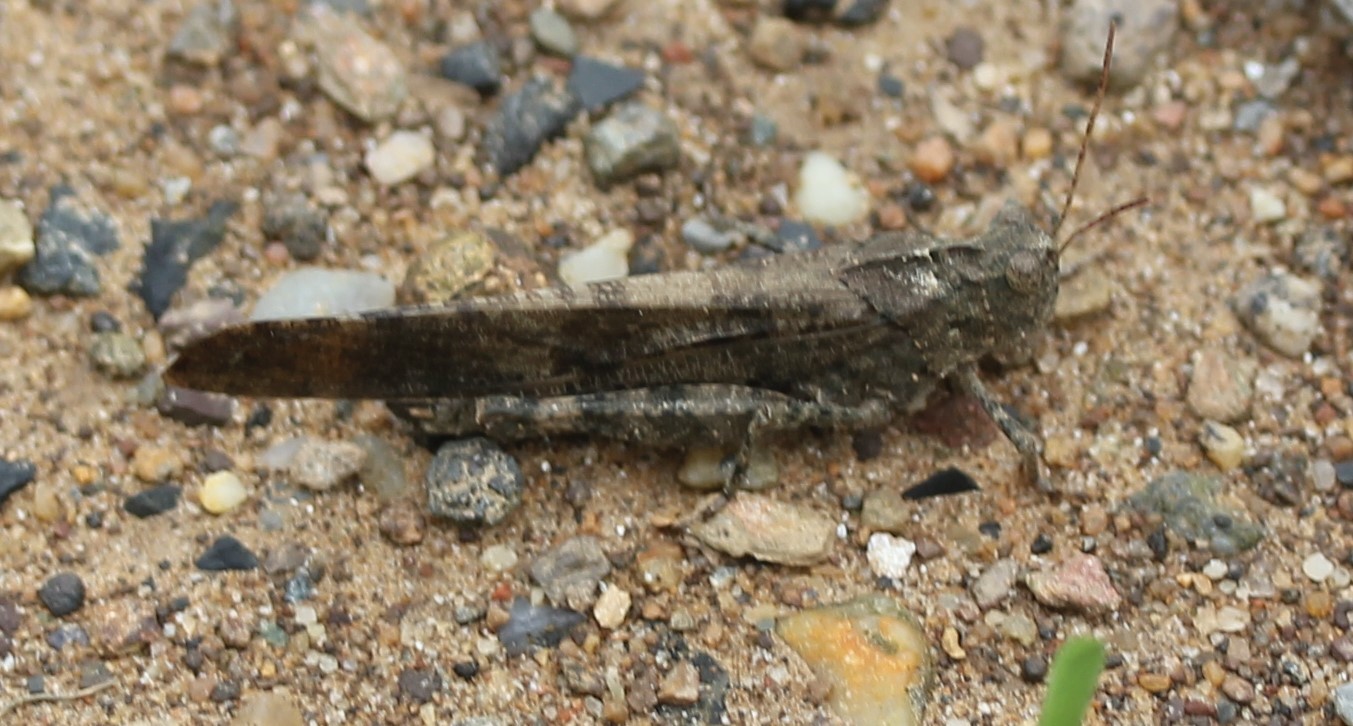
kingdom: Animalia
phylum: Arthropoda
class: Insecta
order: Orthoptera
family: Acrididae
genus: Dissosteira
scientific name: Dissosteira carolina
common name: Carolina grasshopper
